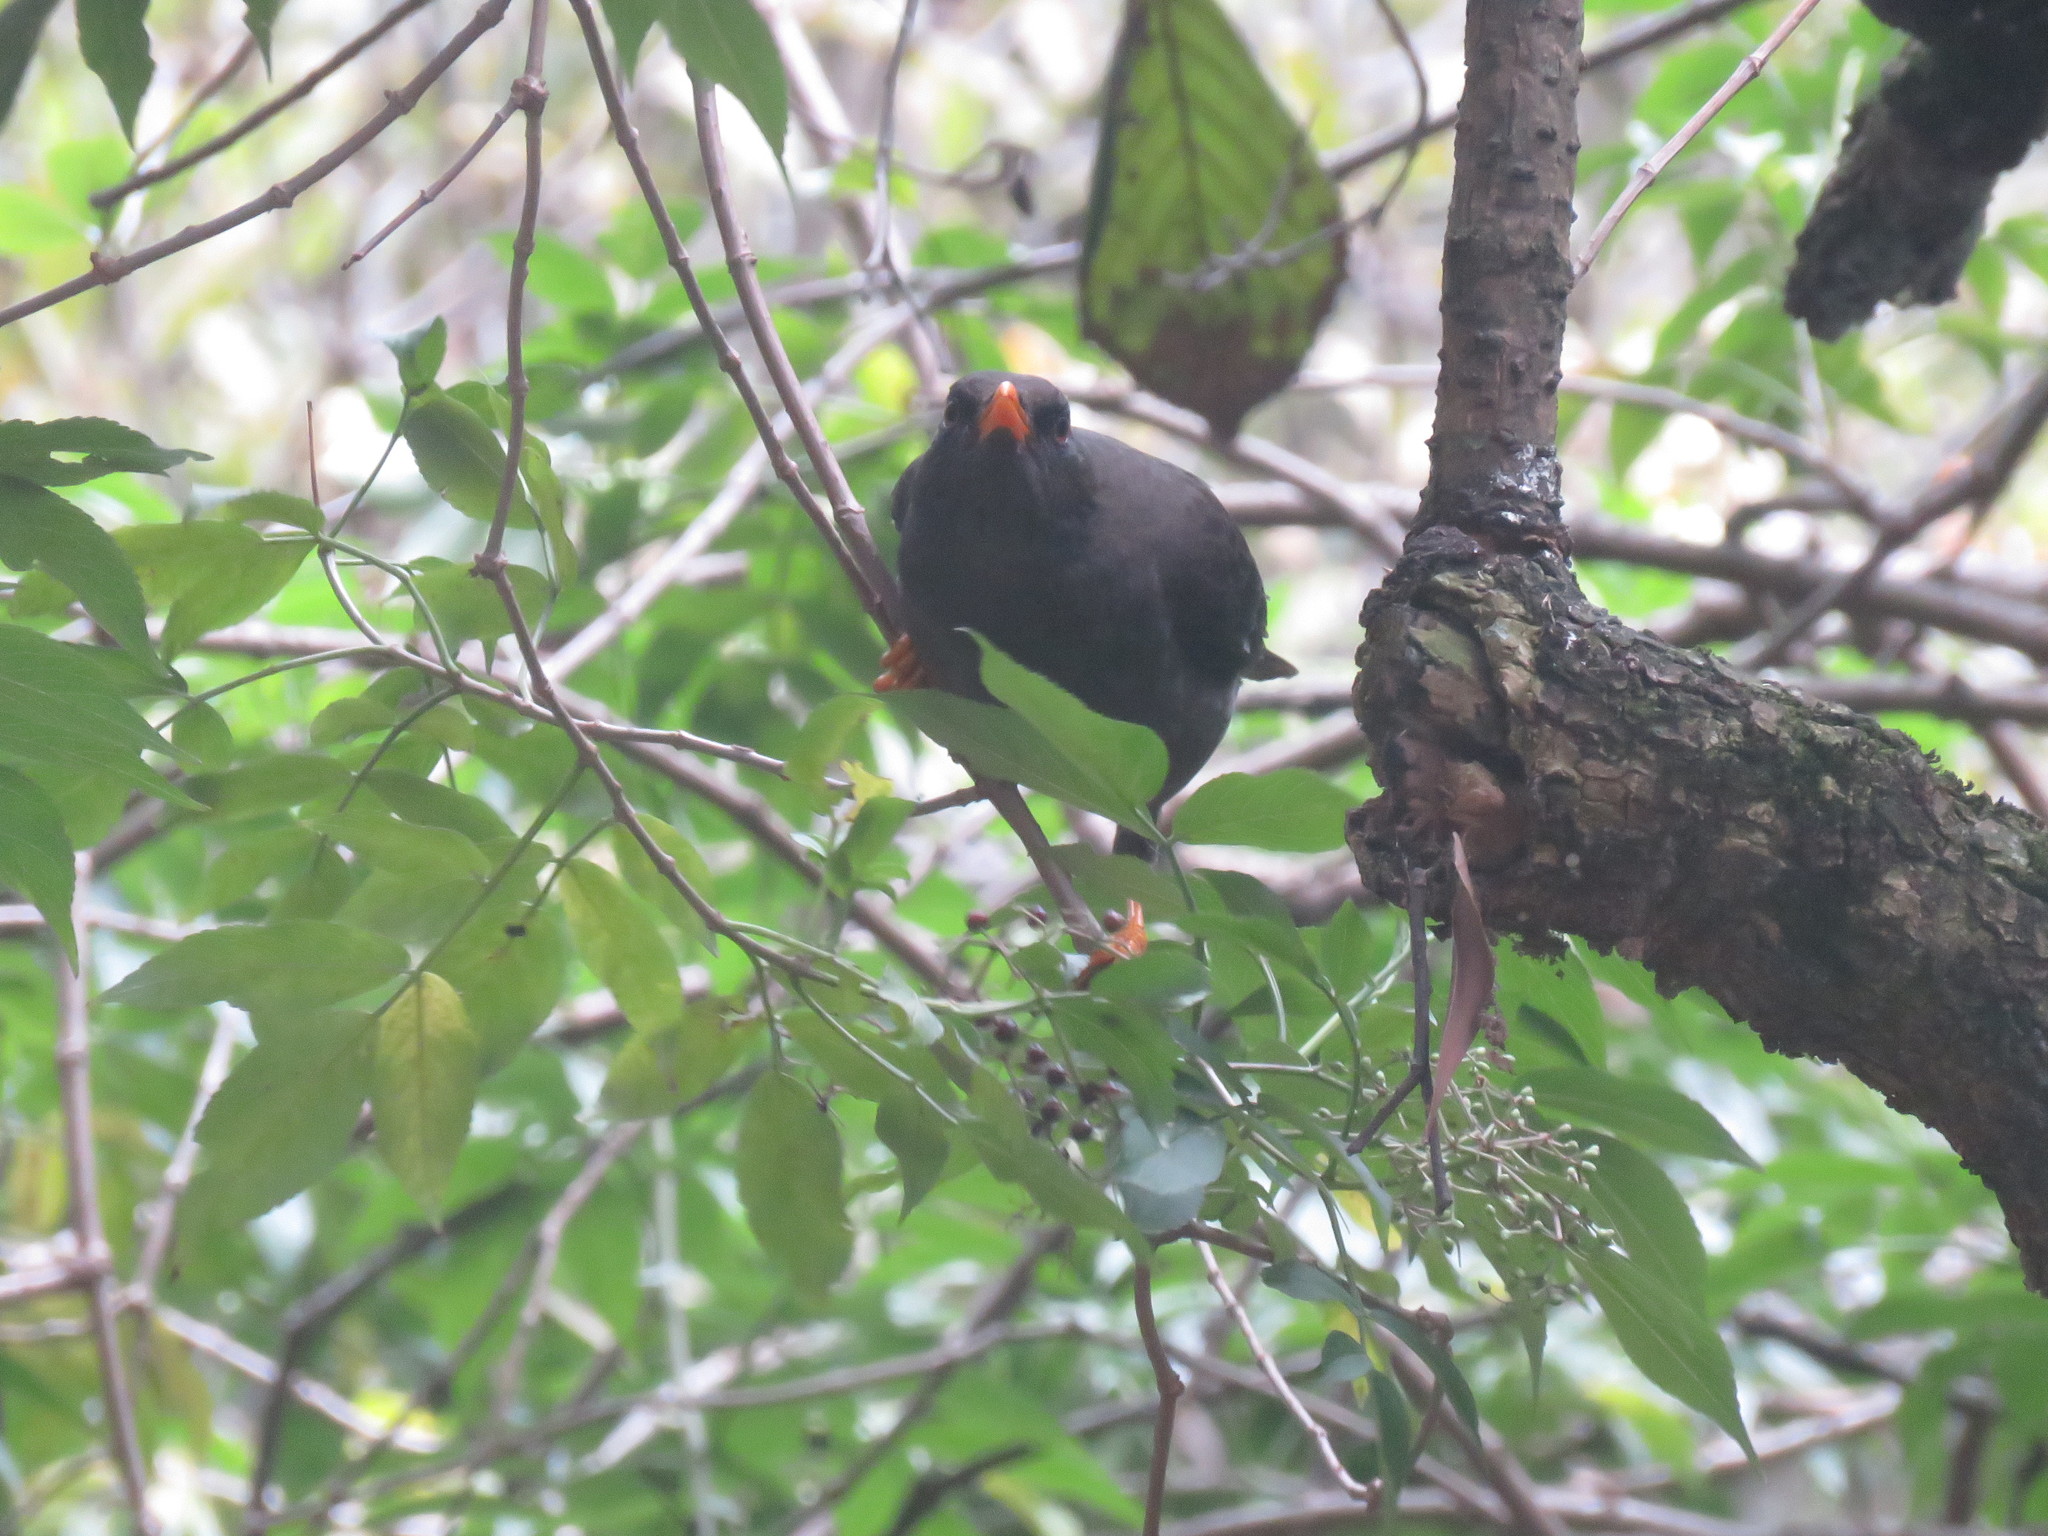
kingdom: Animalia
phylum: Chordata
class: Aves
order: Passeriformes
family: Turdidae
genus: Turdus
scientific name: Turdus fuscater
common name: Great thrush
